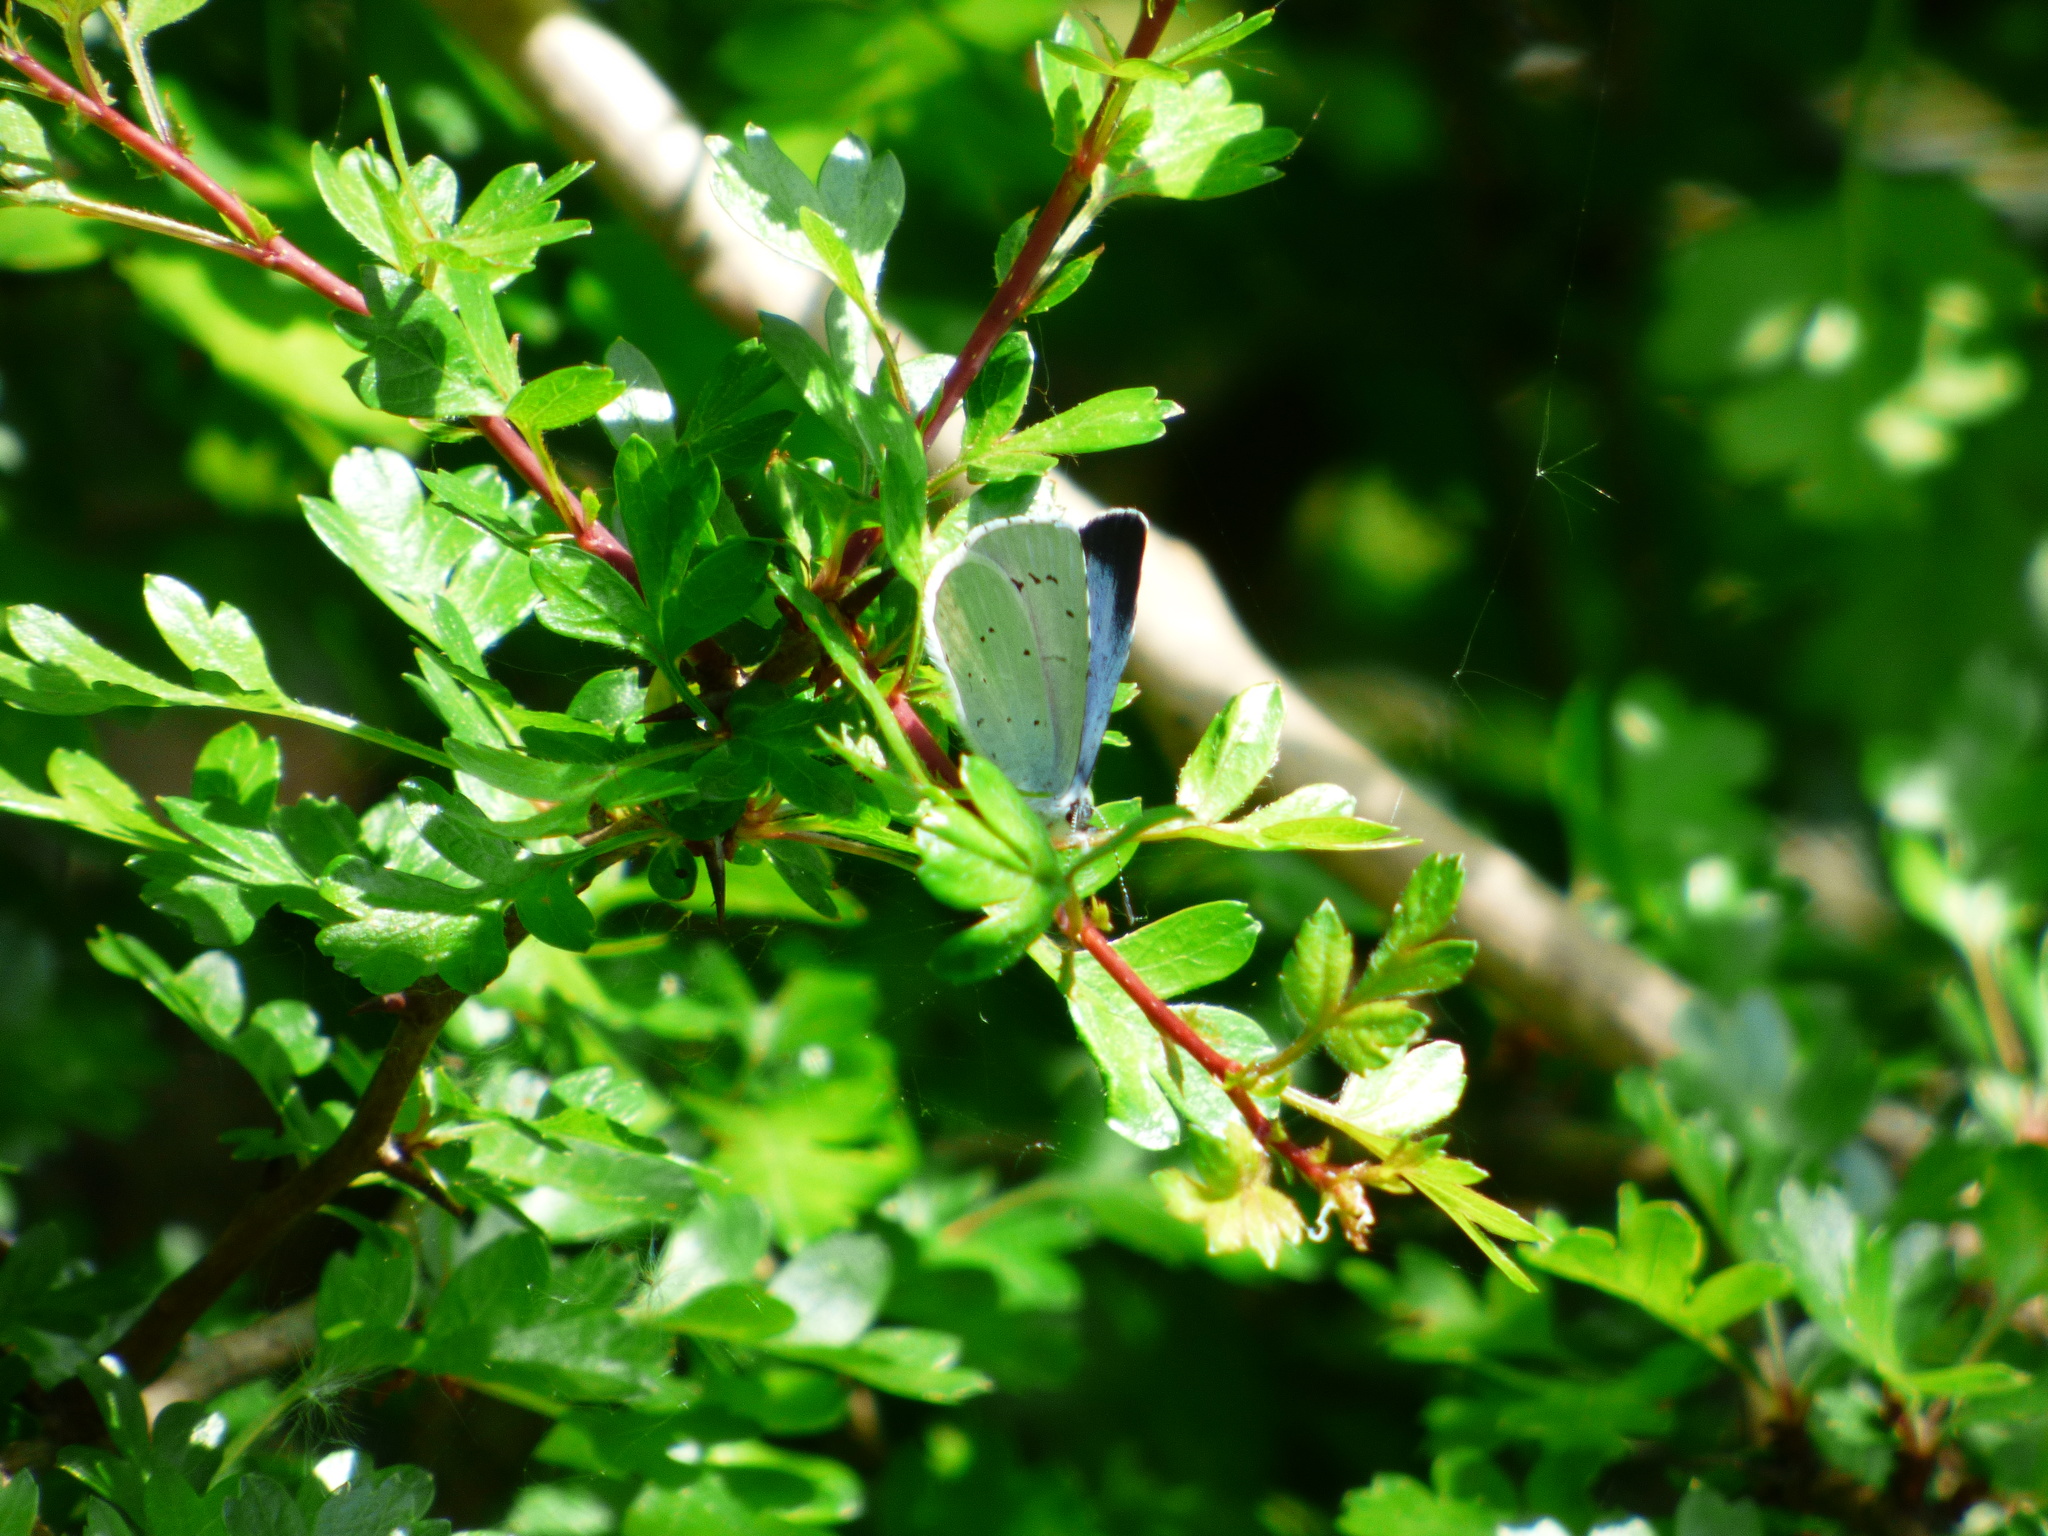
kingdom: Animalia
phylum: Arthropoda
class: Insecta
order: Lepidoptera
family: Lycaenidae
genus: Celastrina
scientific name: Celastrina argiolus
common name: Holly blue
